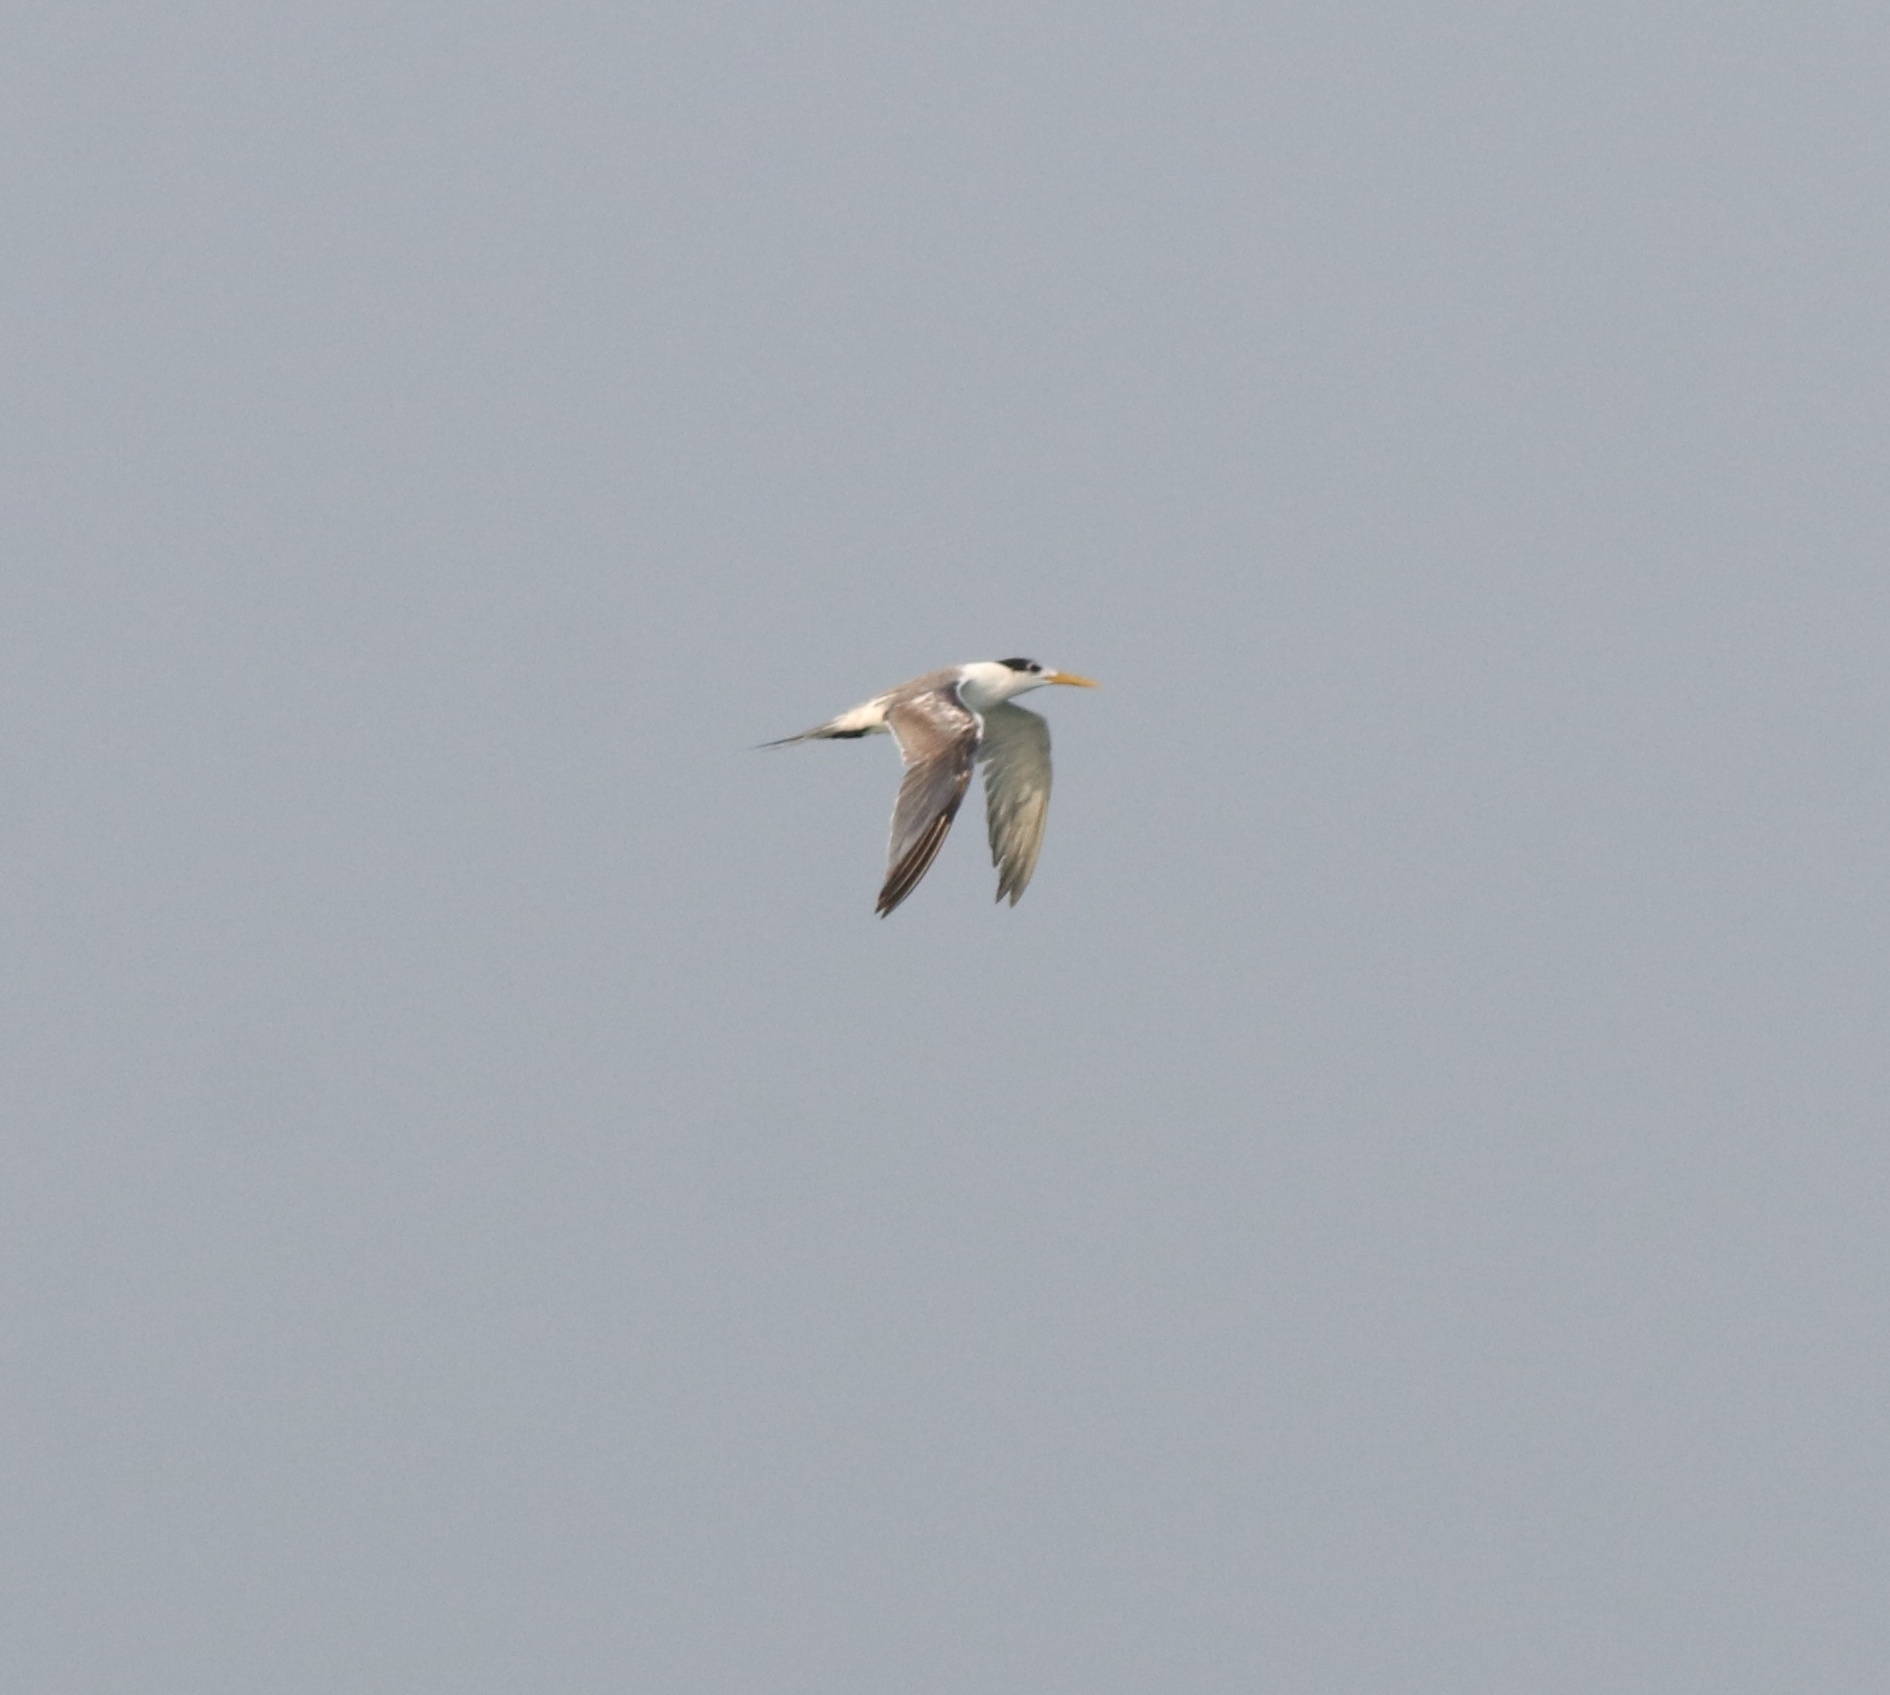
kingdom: Animalia
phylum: Chordata
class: Aves
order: Charadriiformes
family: Laridae
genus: Thalasseus
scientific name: Thalasseus bengalensis
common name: Lesser crested tern
